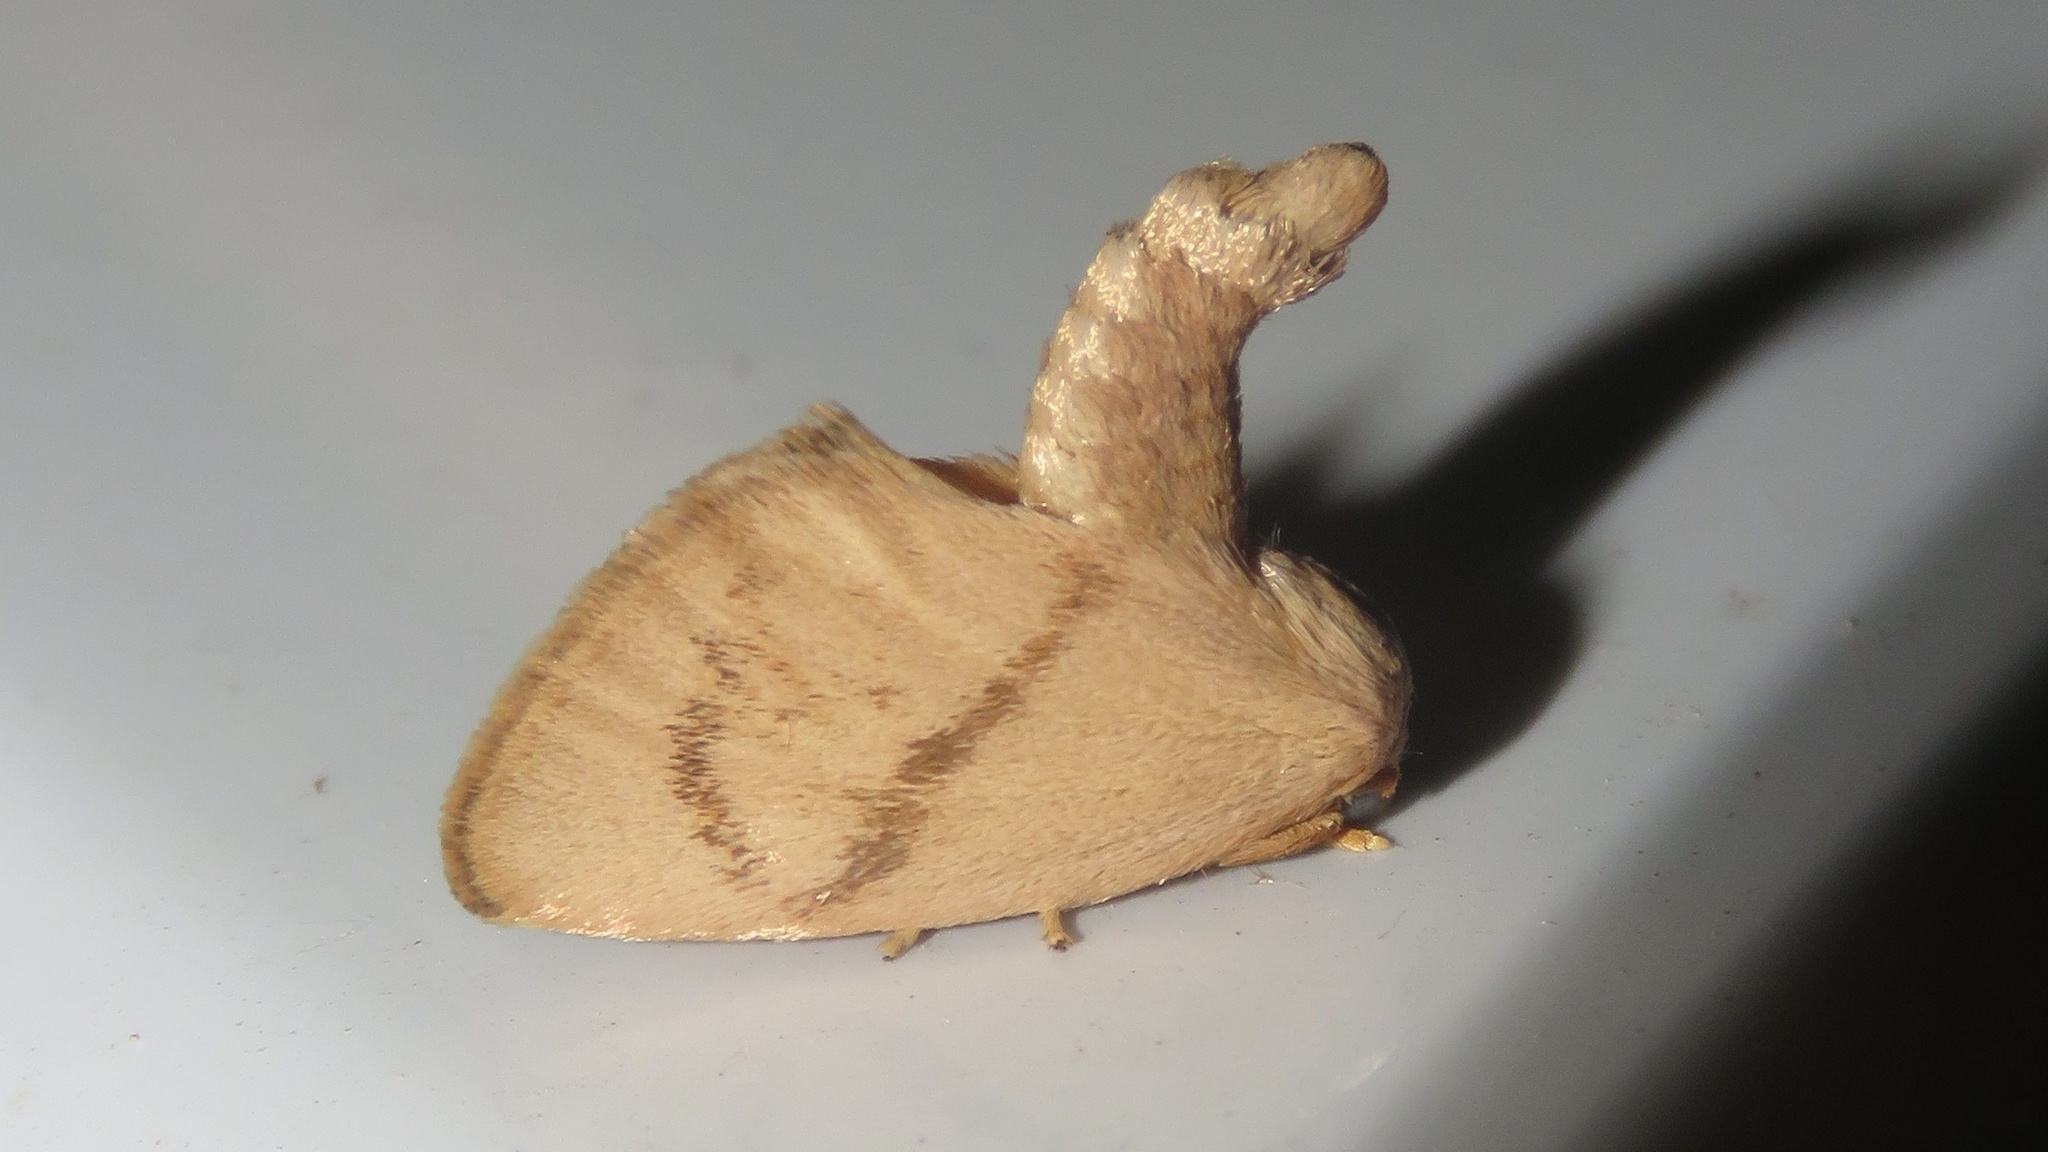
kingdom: Animalia
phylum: Arthropoda
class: Insecta
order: Lepidoptera
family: Limacodidae
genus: Tortricidia
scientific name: Tortricidia flexuosa
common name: Abbreviated button slug moth
